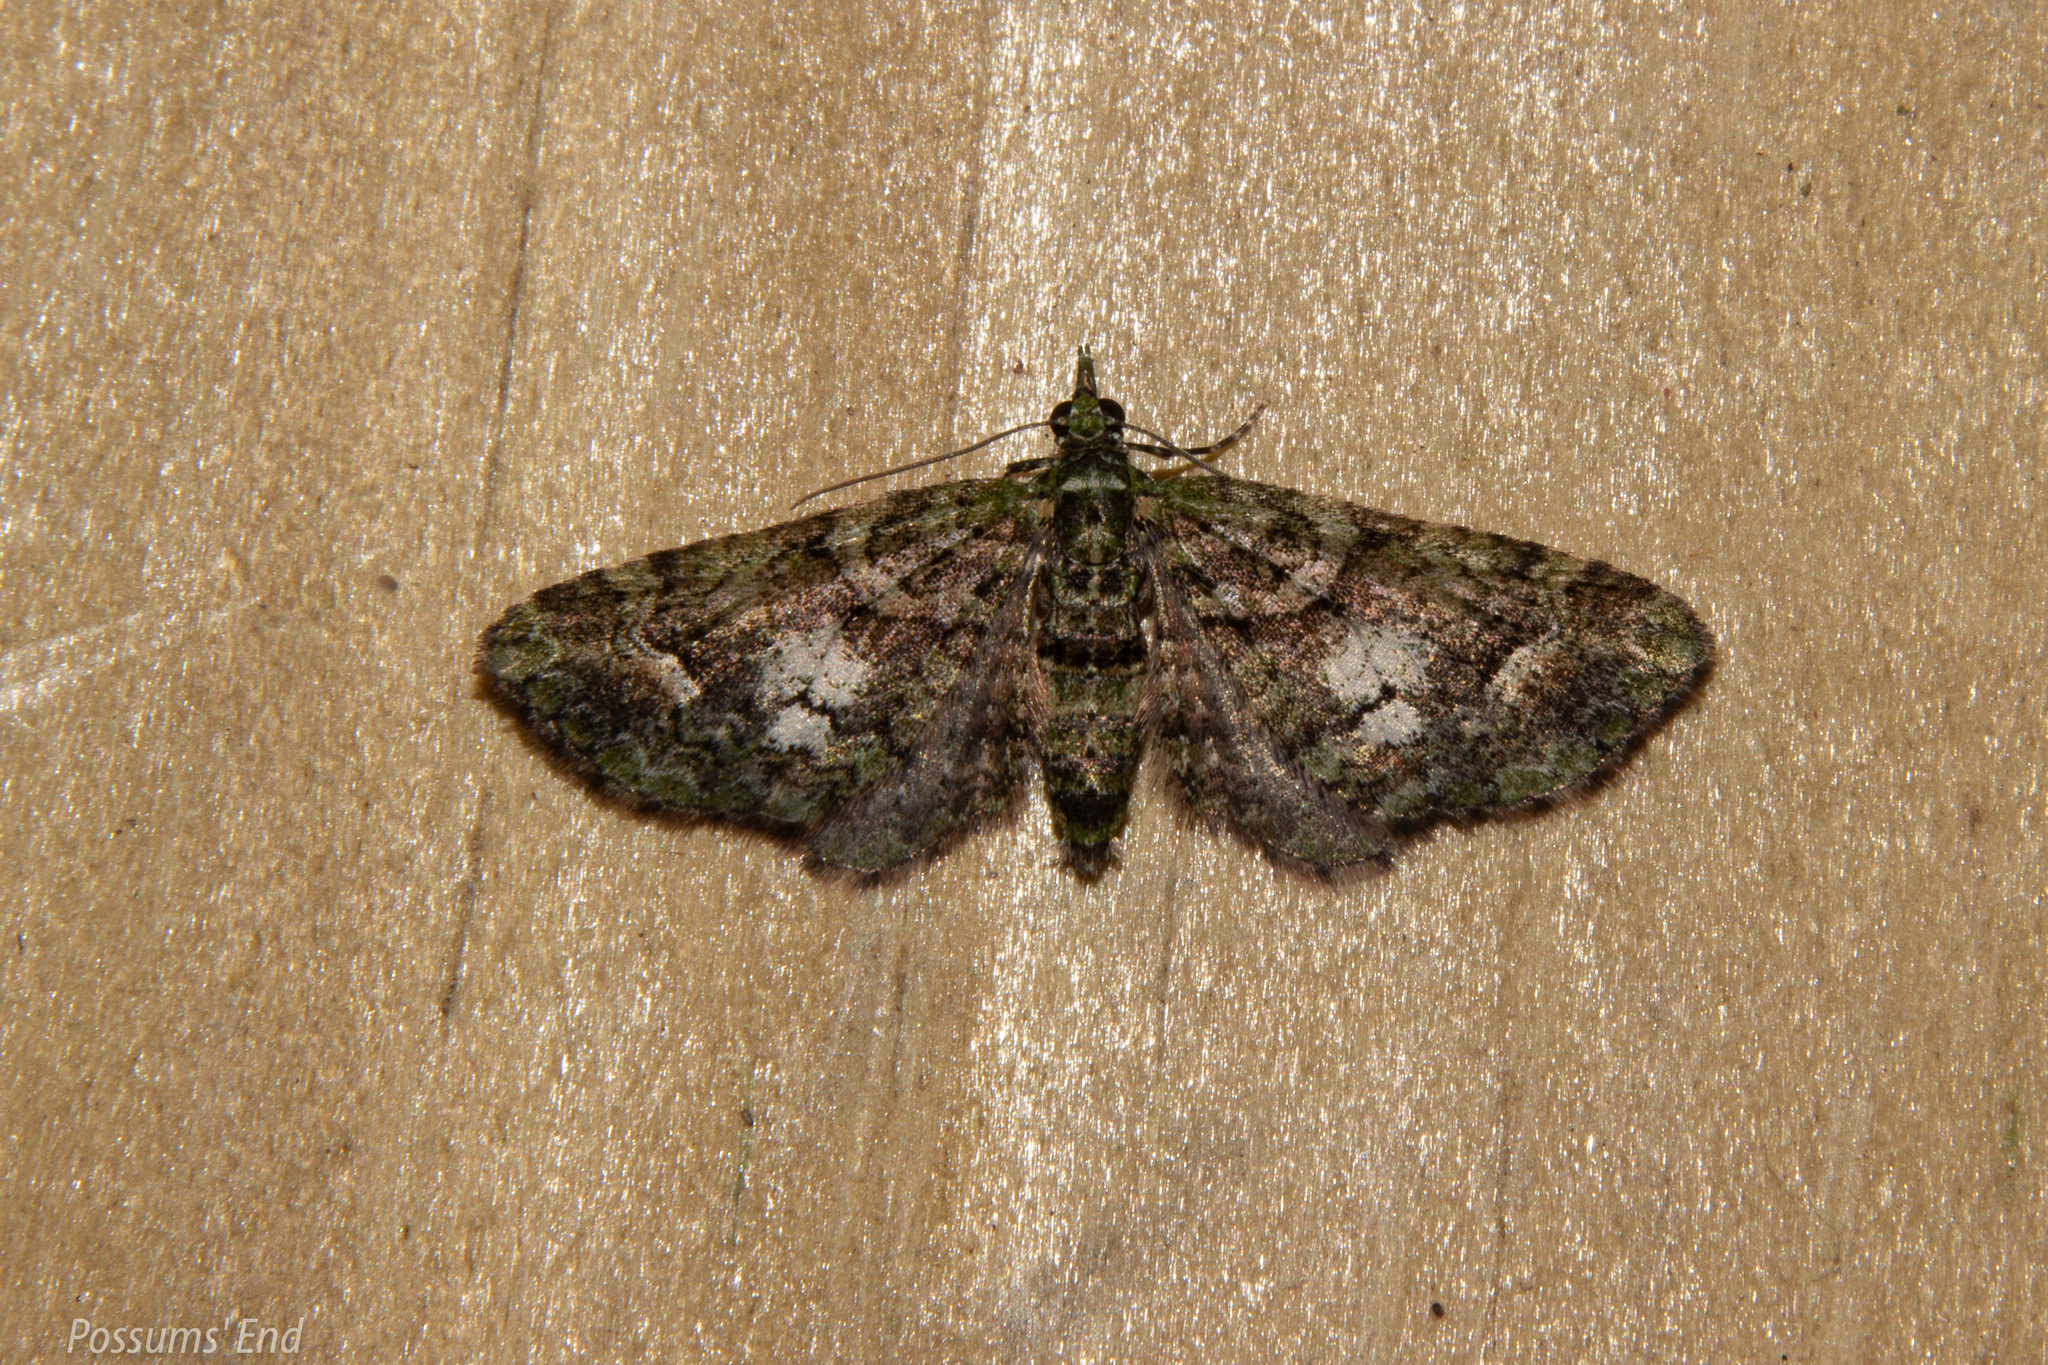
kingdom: Animalia
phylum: Arthropoda
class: Insecta
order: Lepidoptera
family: Geometridae
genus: Idaea
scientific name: Idaea mutanda
